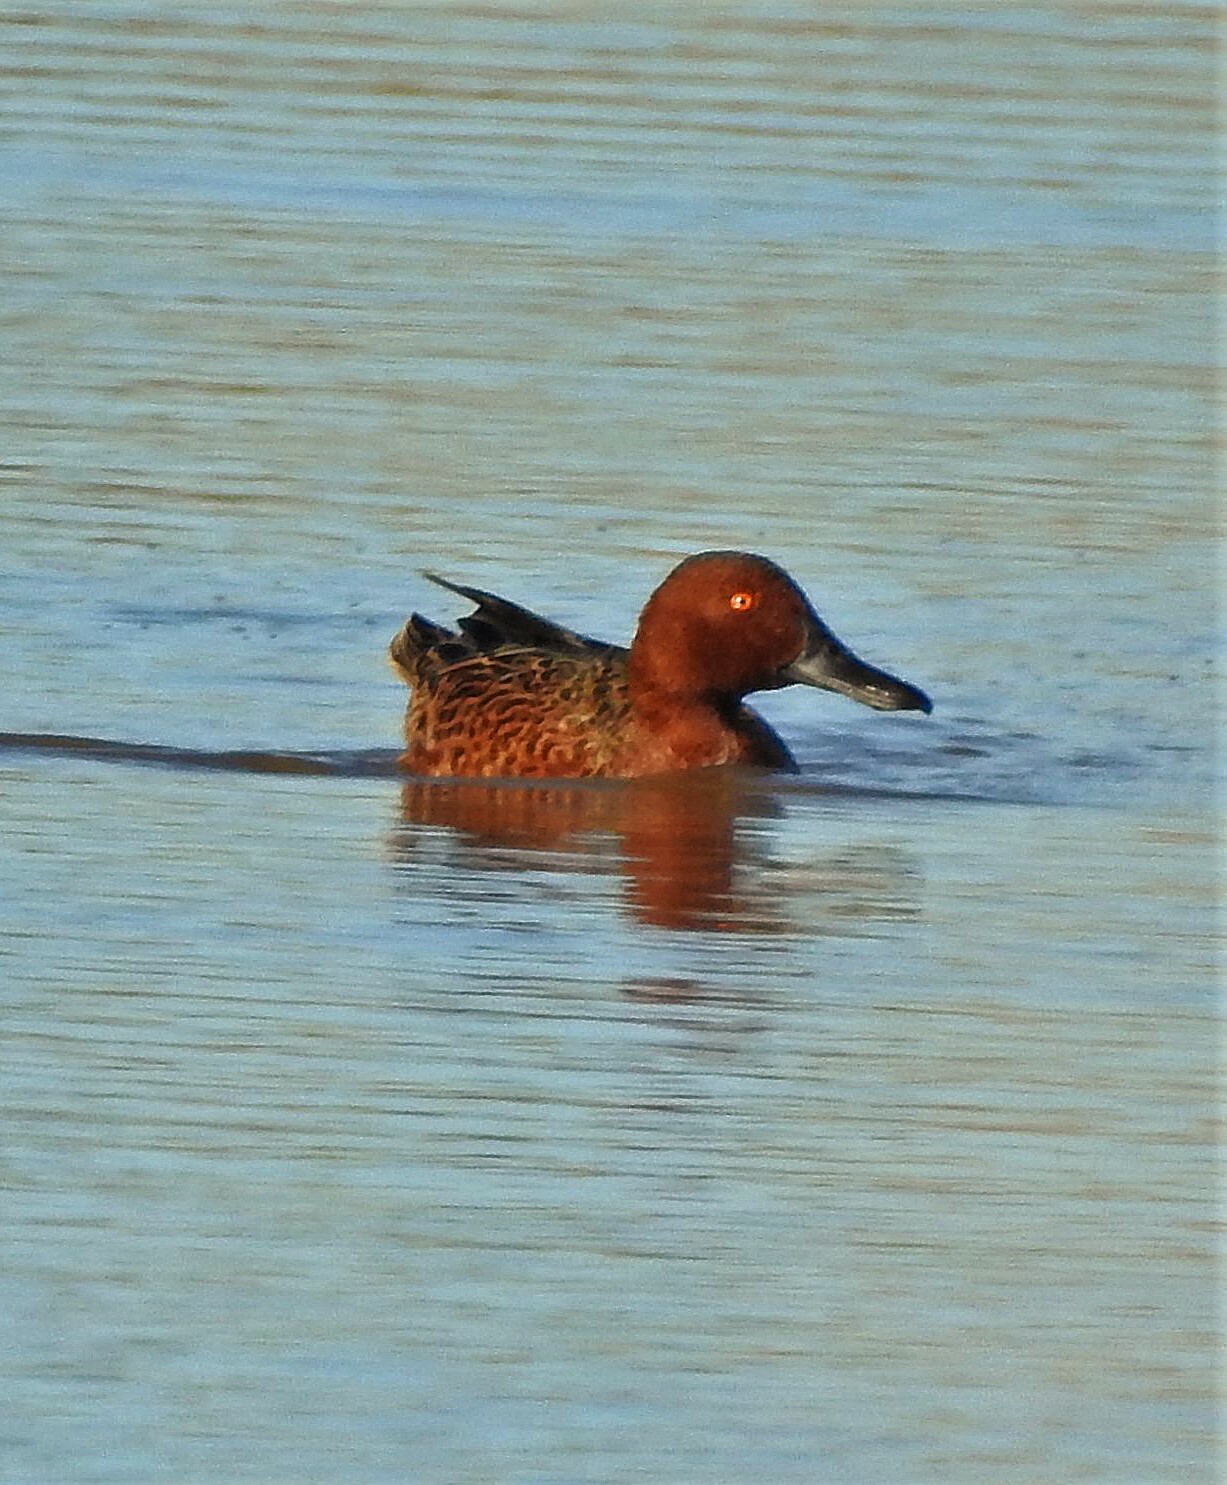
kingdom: Animalia
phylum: Chordata
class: Aves
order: Anseriformes
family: Anatidae
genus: Spatula
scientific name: Spatula cyanoptera
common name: Cinnamon teal
